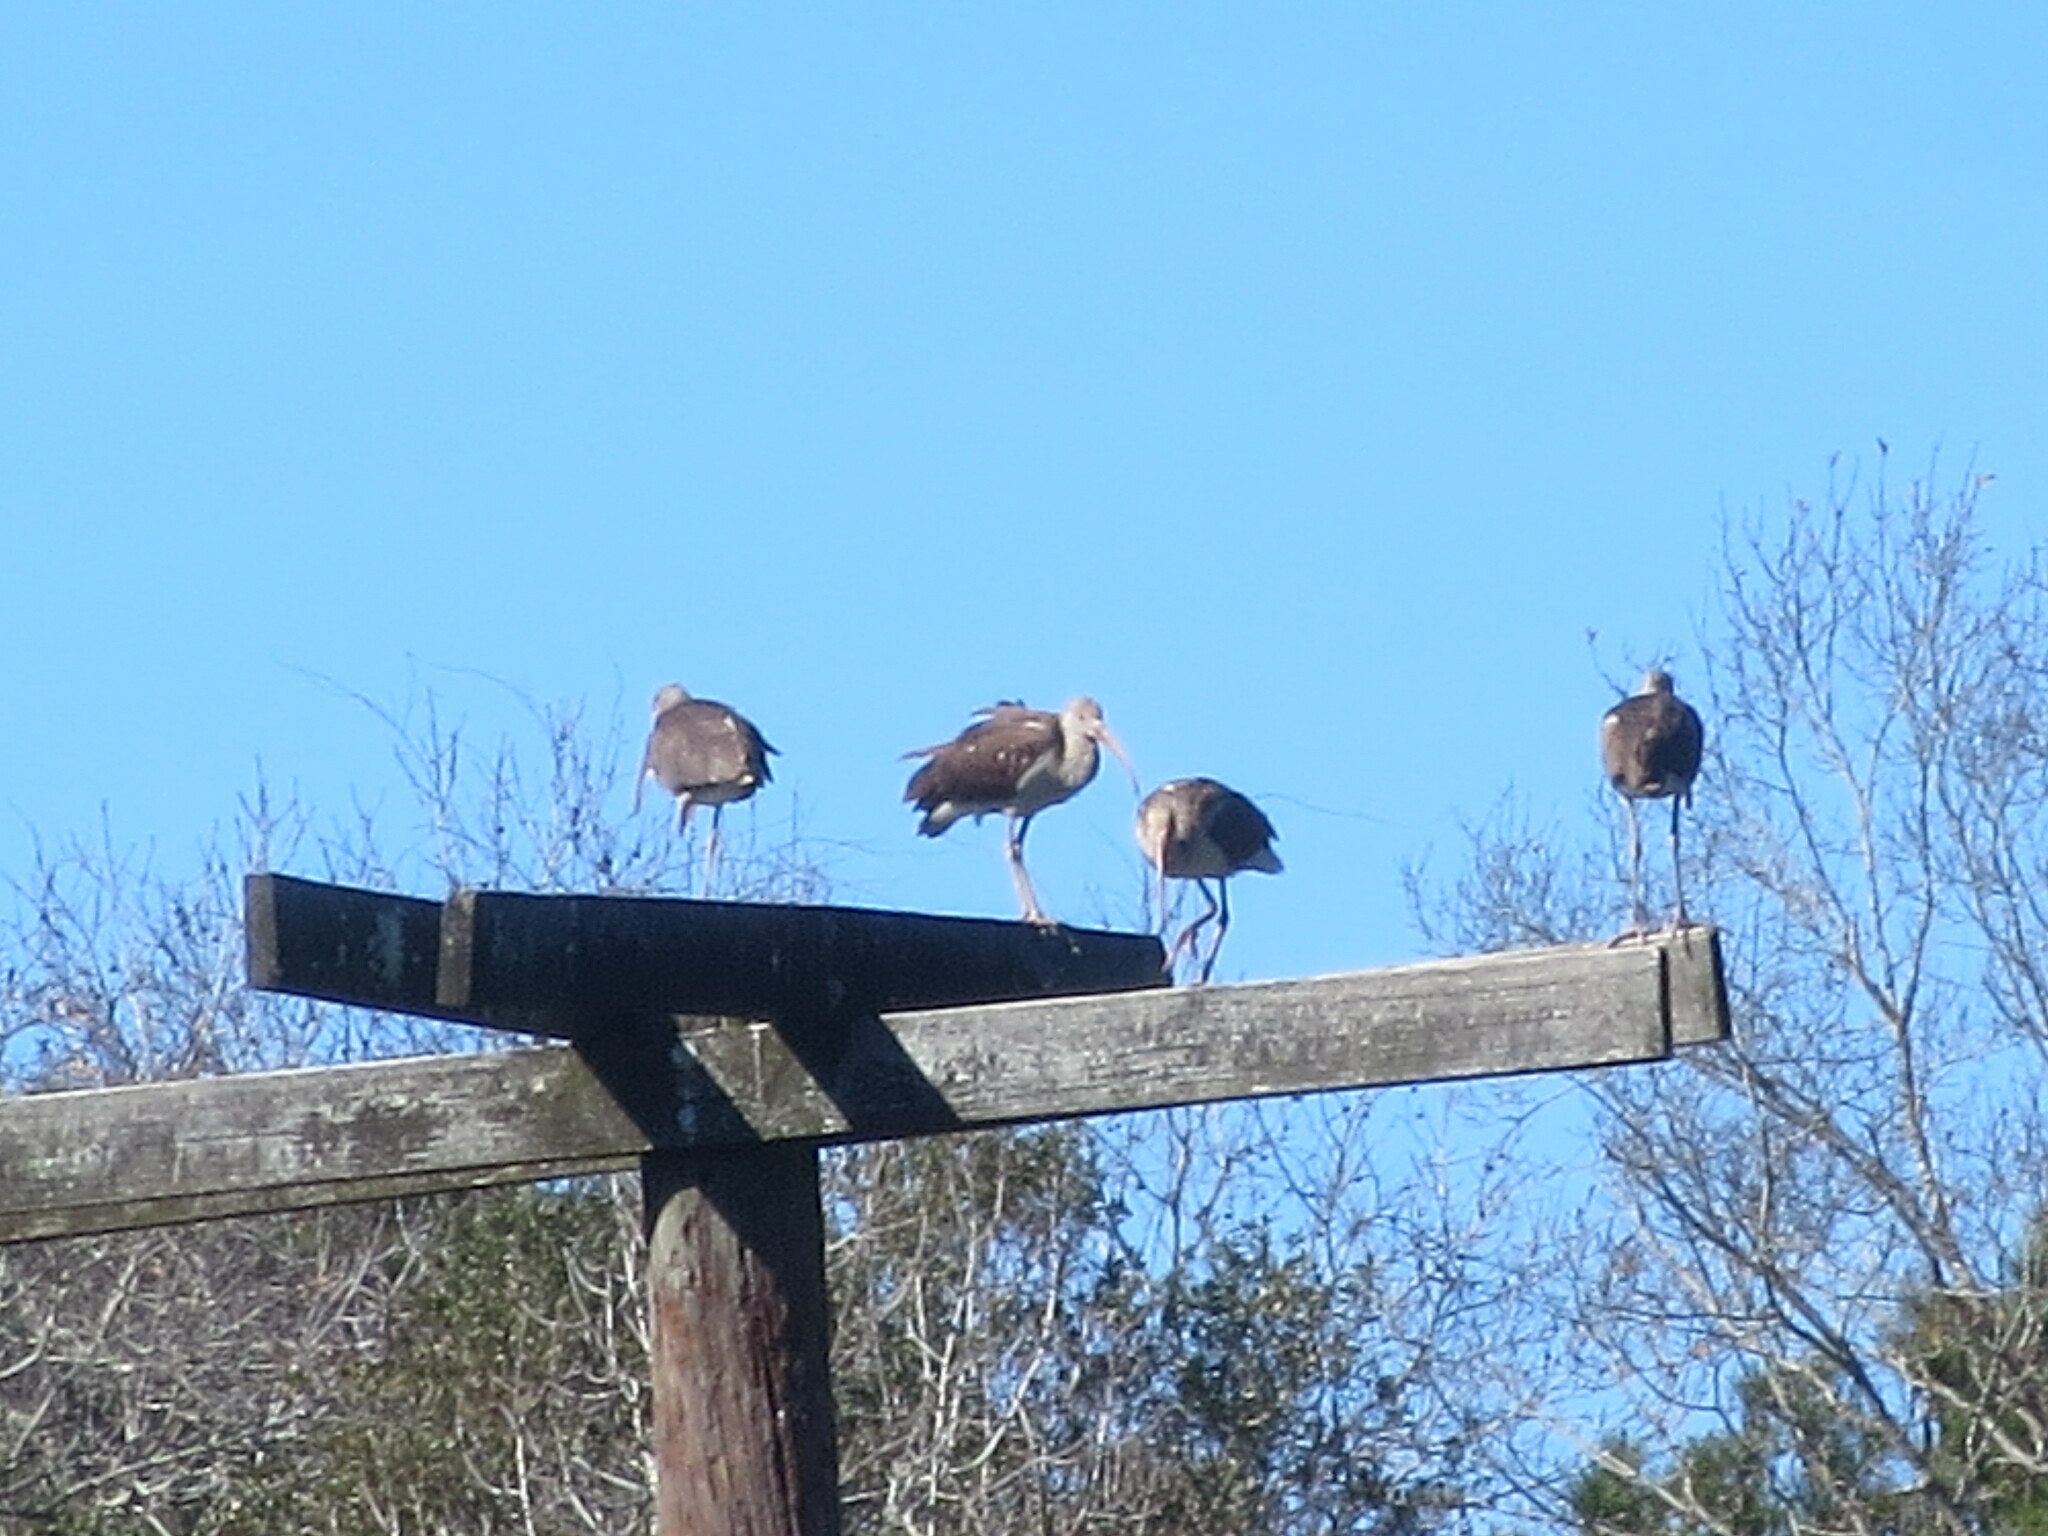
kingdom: Animalia
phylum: Chordata
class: Aves
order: Pelecaniformes
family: Threskiornithidae
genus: Eudocimus
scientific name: Eudocimus albus
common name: White ibis
